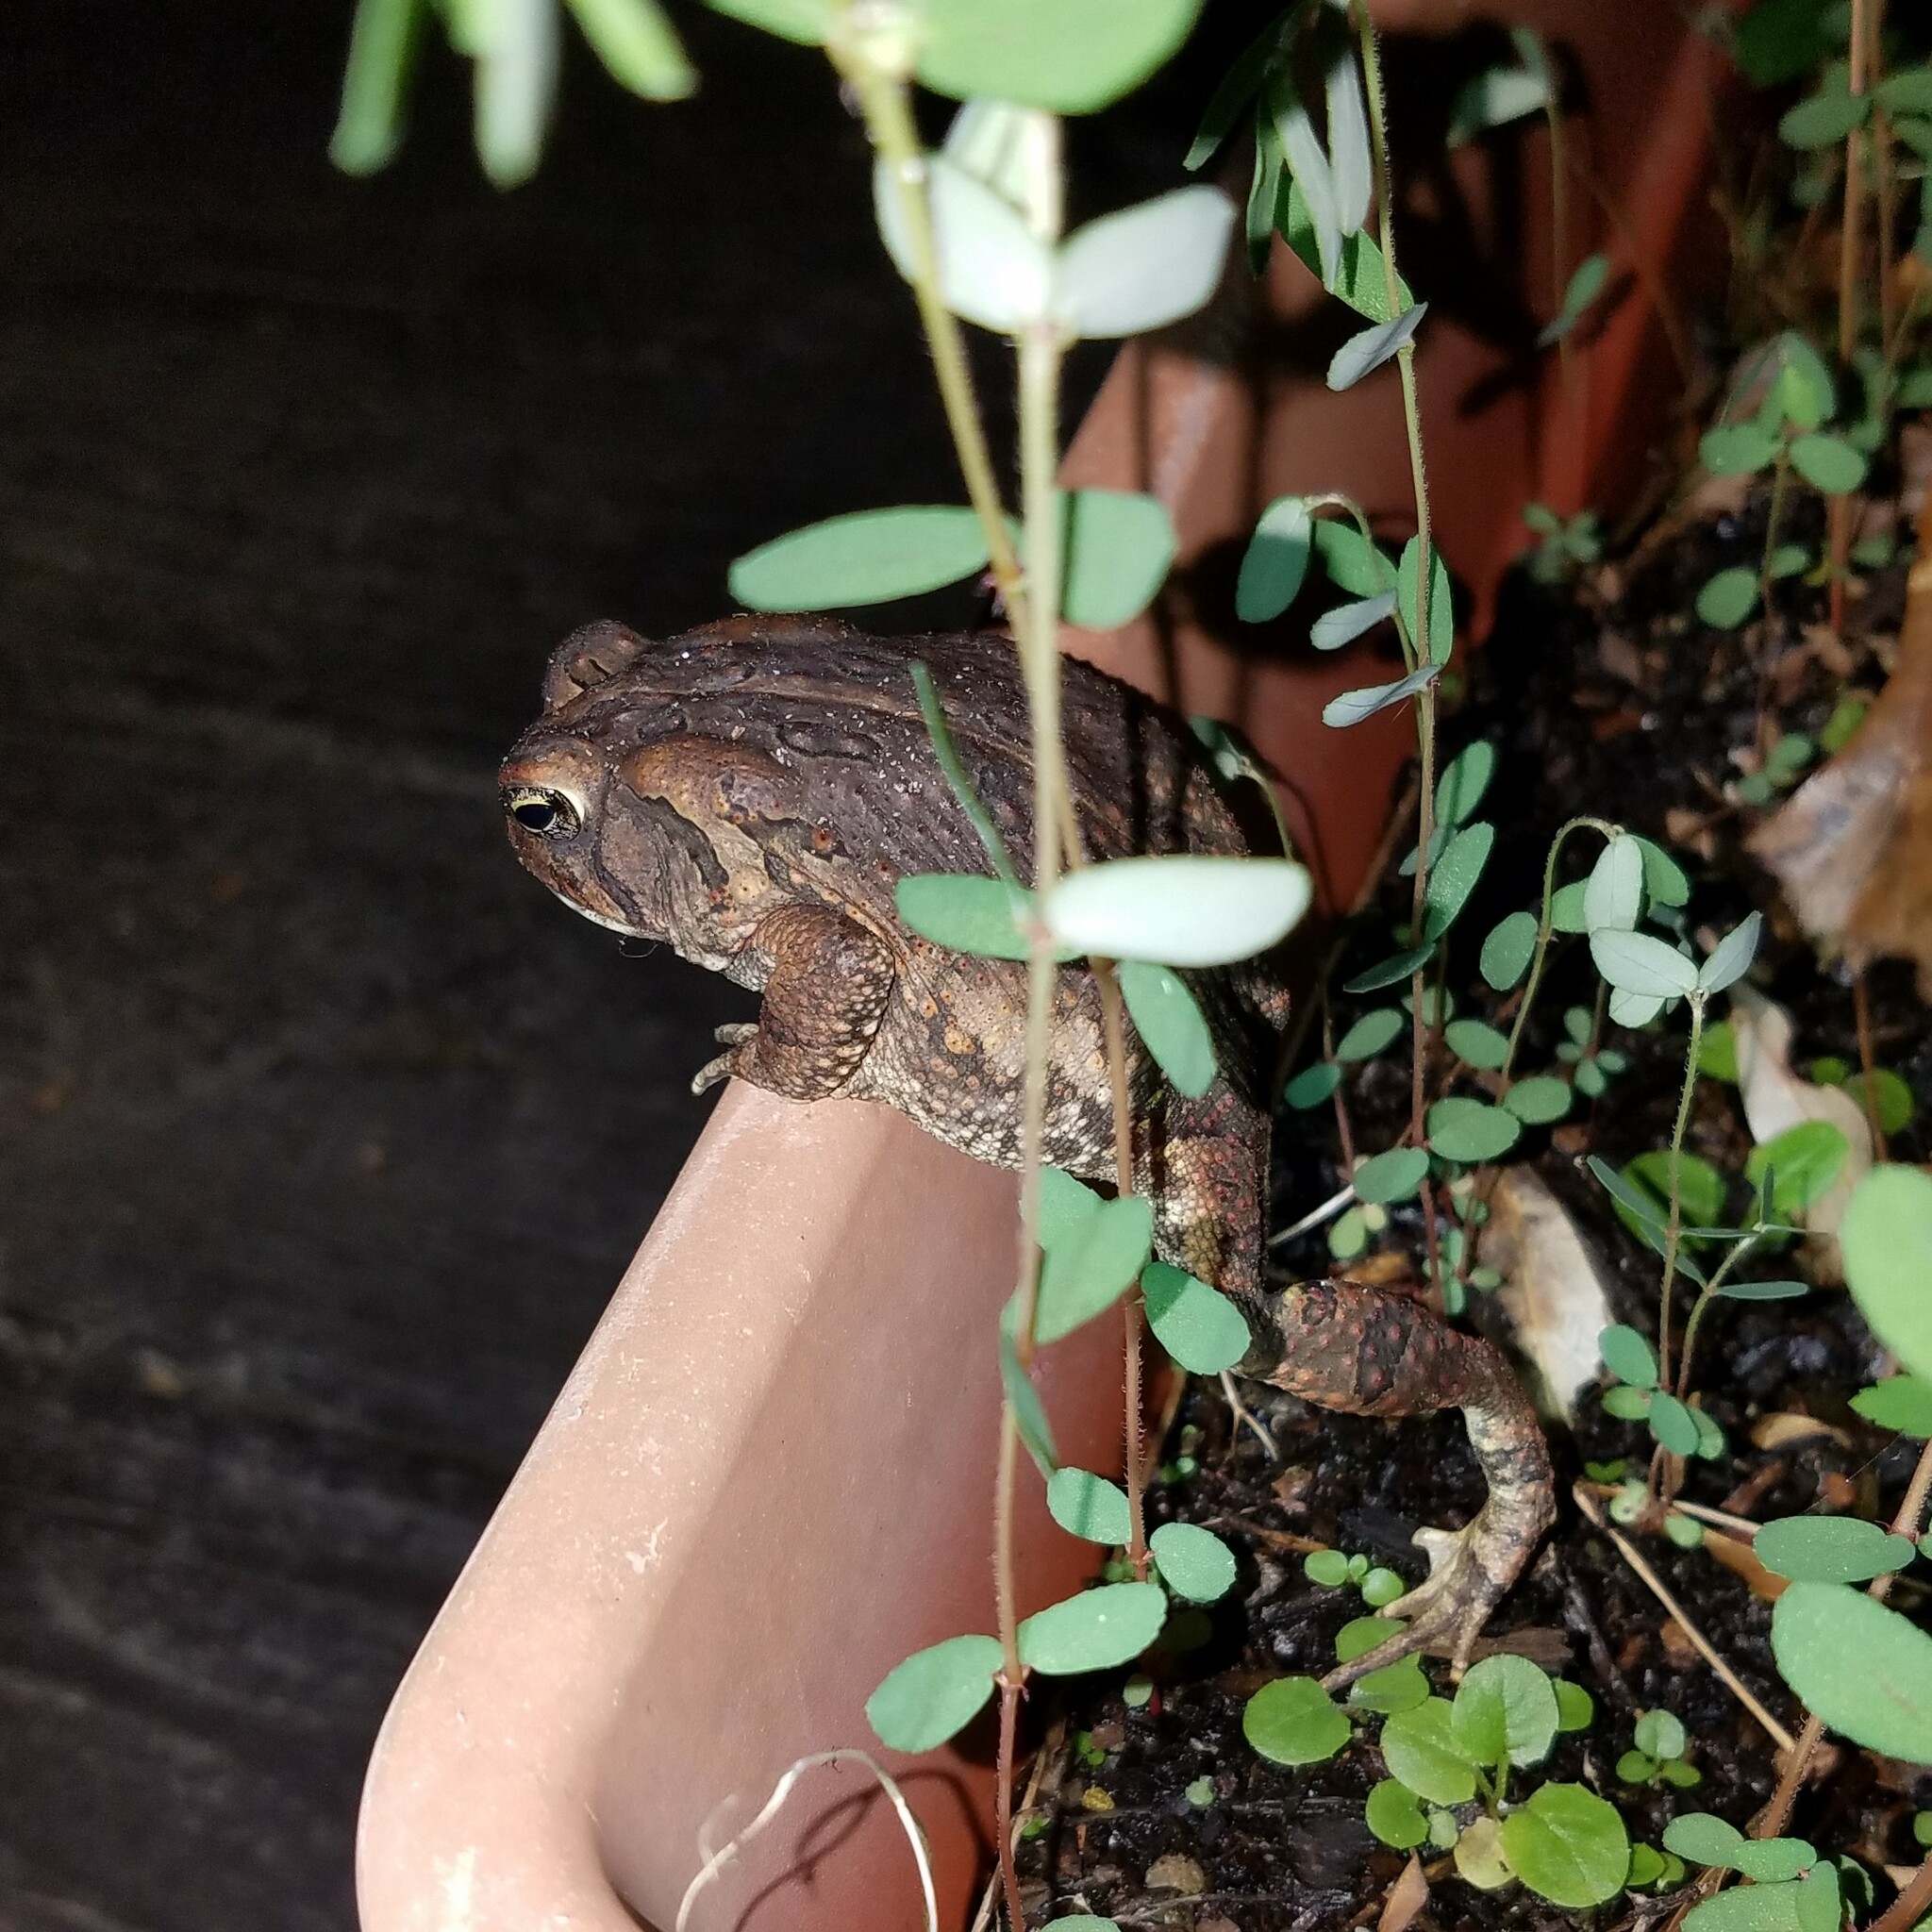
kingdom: Animalia
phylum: Chordata
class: Amphibia
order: Anura
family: Bufonidae
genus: Anaxyrus
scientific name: Anaxyrus fowleri
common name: Fowler's toad
